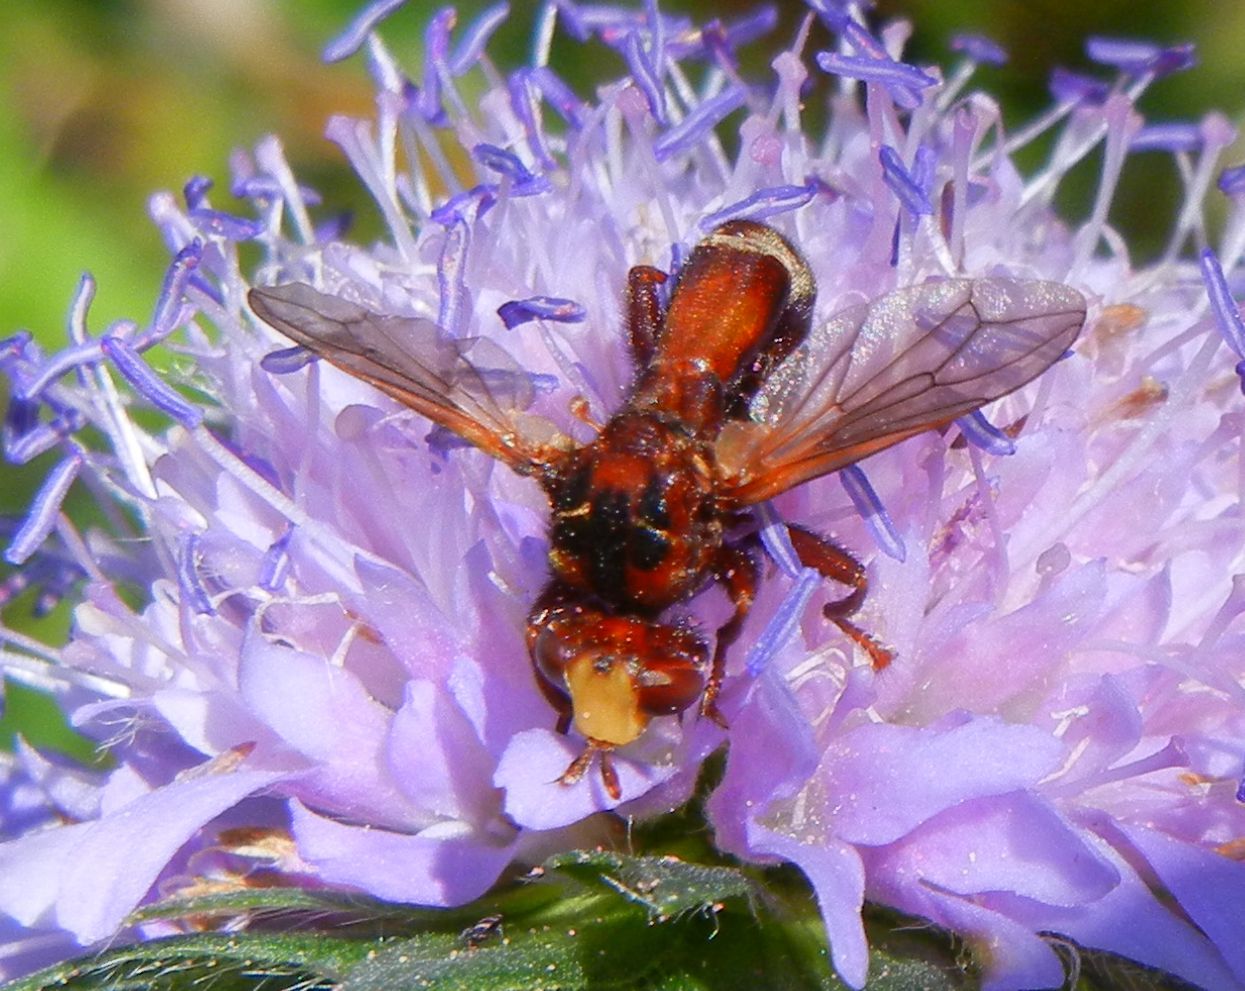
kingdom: Animalia
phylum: Arthropoda
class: Insecta
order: Diptera
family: Conopidae
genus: Sicus
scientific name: Sicus ferrugineus
